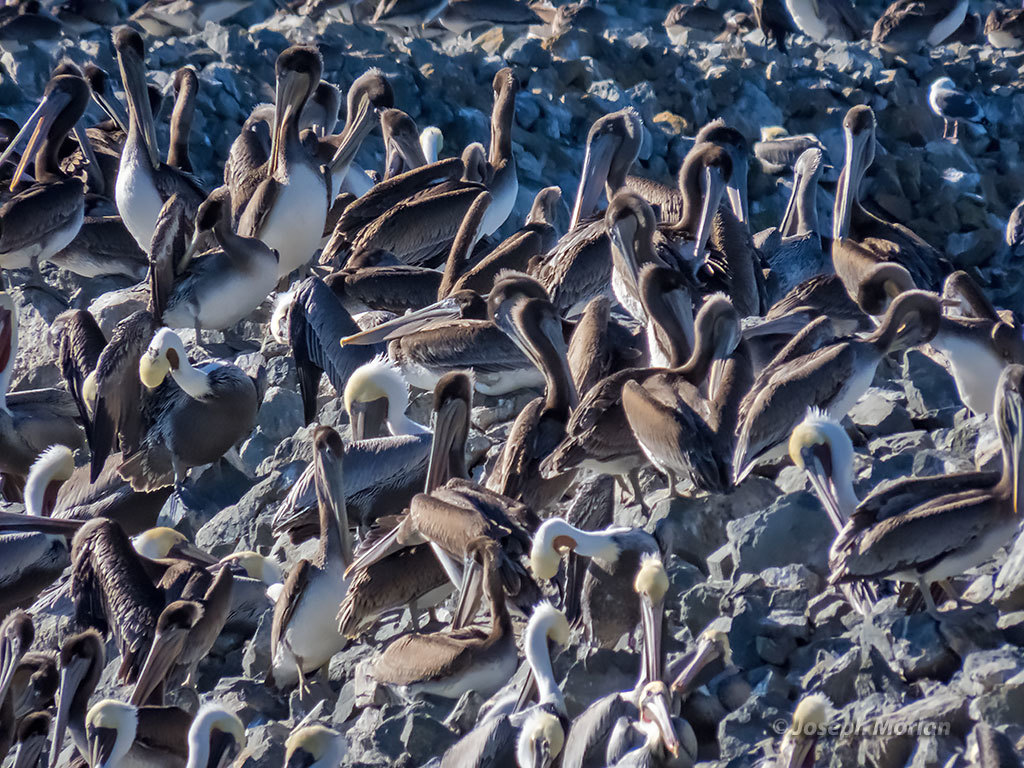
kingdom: Animalia
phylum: Chordata
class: Aves
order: Pelecaniformes
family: Pelecanidae
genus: Pelecanus
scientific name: Pelecanus occidentalis
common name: Brown pelican
